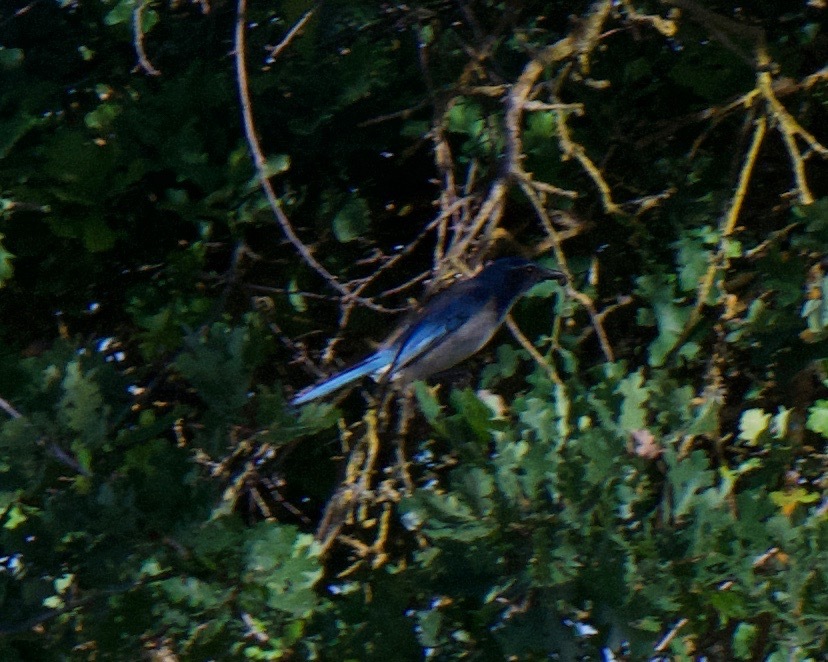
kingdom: Animalia
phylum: Chordata
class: Aves
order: Passeriformes
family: Corvidae
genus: Aphelocoma
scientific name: Aphelocoma californica
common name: California scrub-jay
